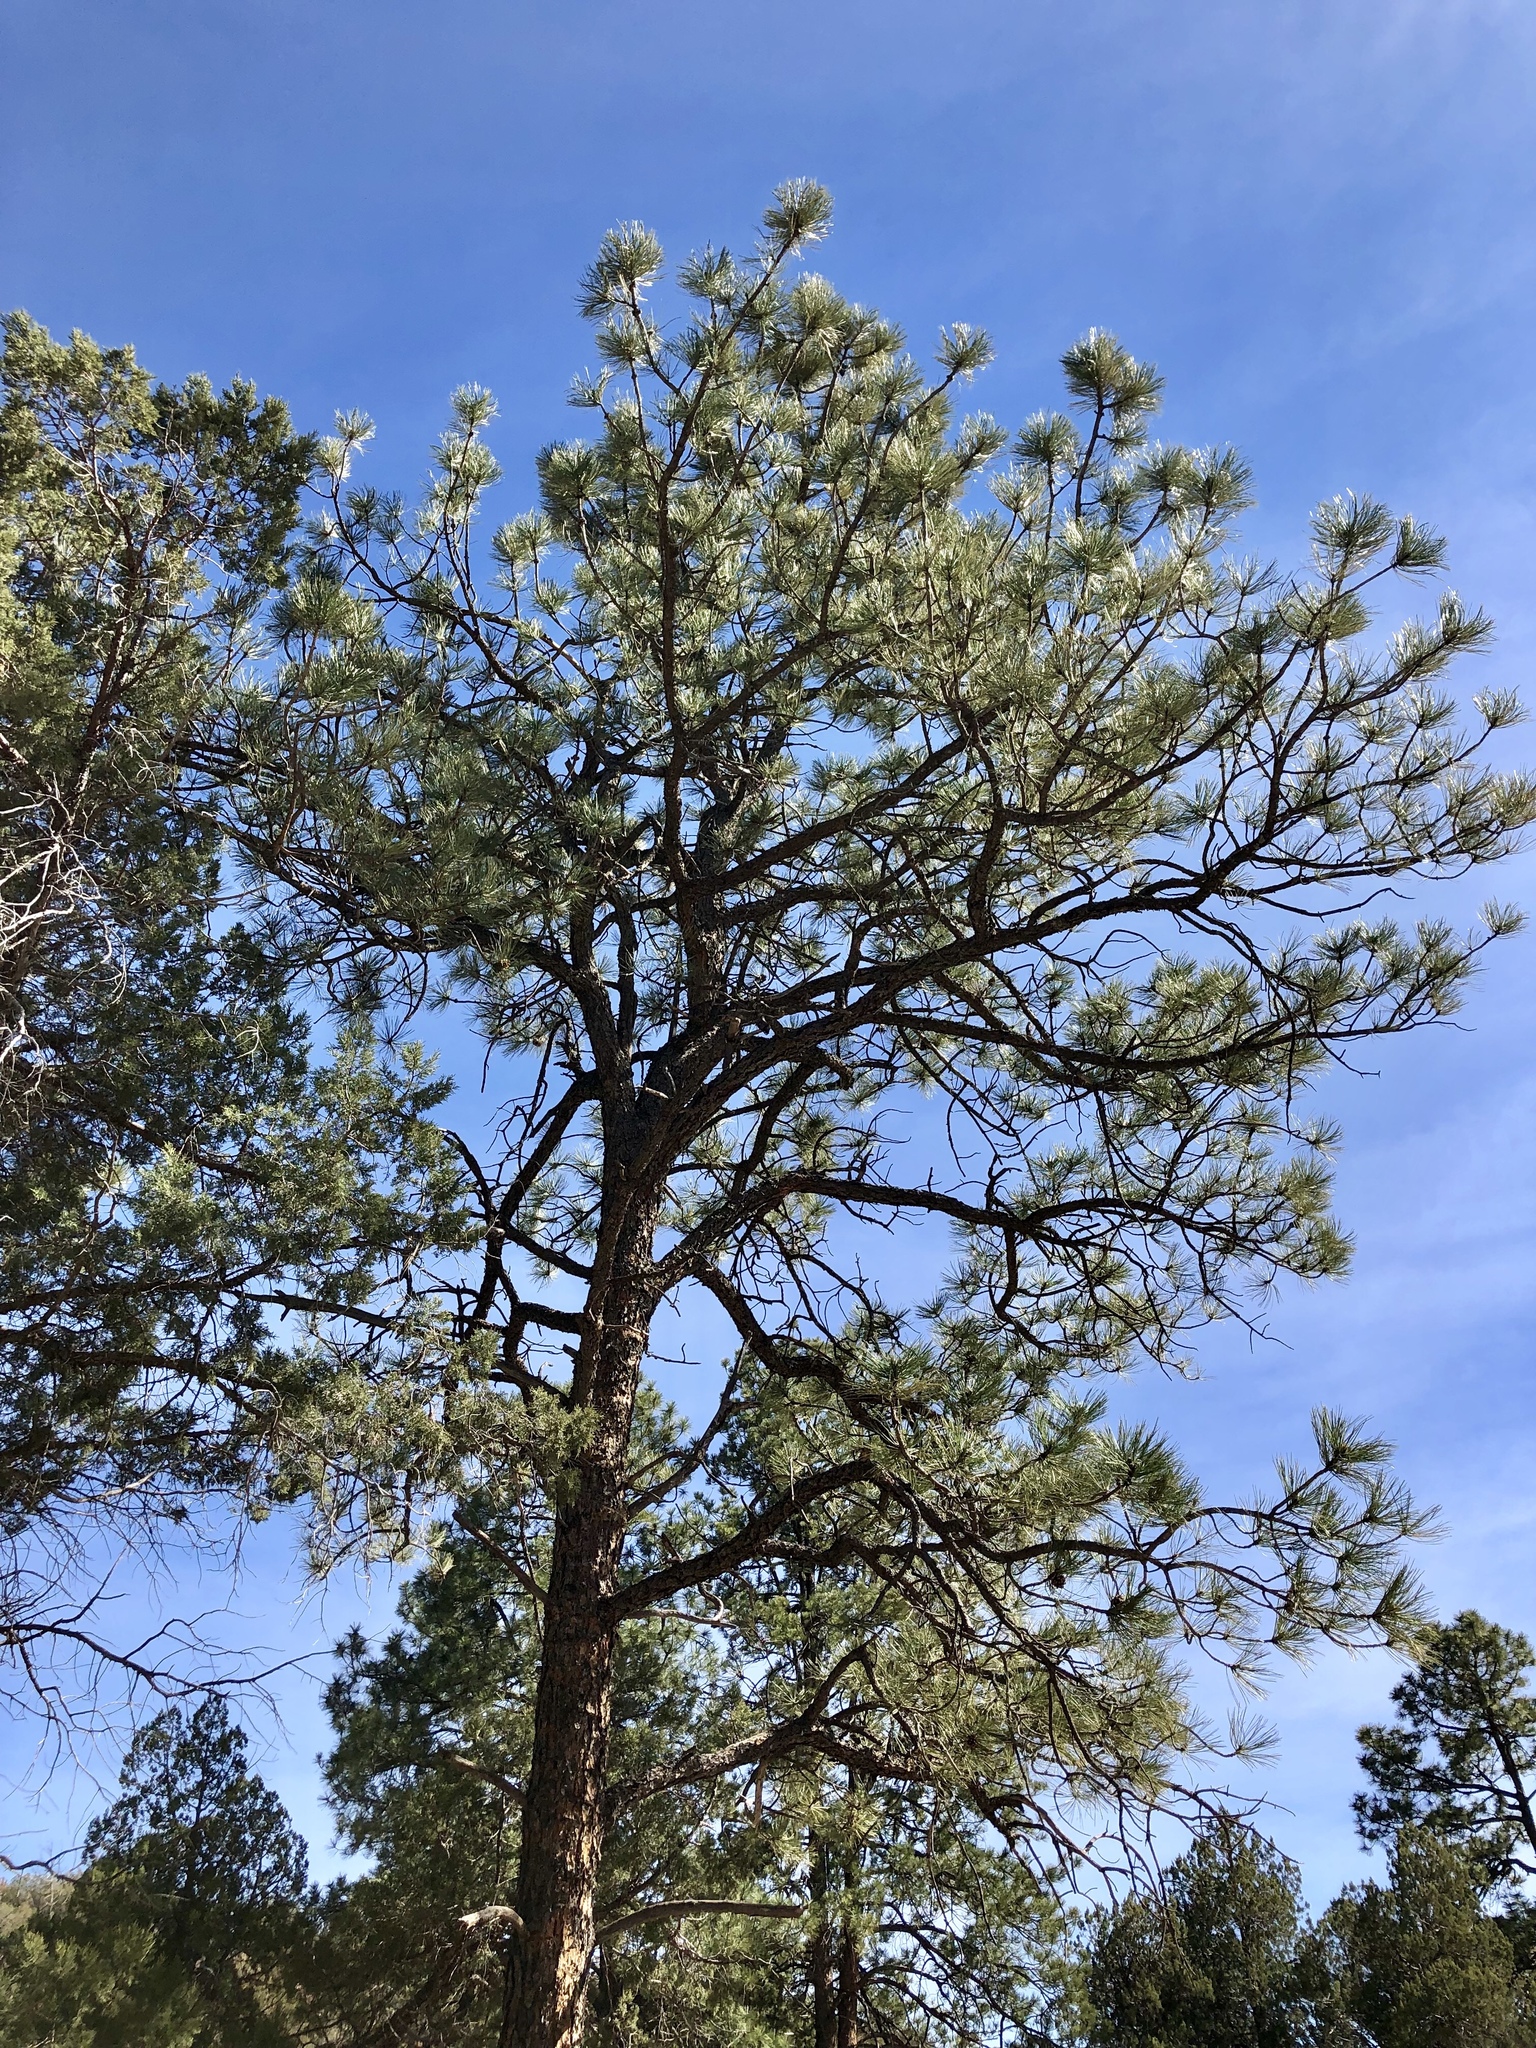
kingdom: Plantae
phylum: Tracheophyta
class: Pinopsida
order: Pinales
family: Pinaceae
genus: Pinus
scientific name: Pinus ponderosa
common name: Western yellow-pine
